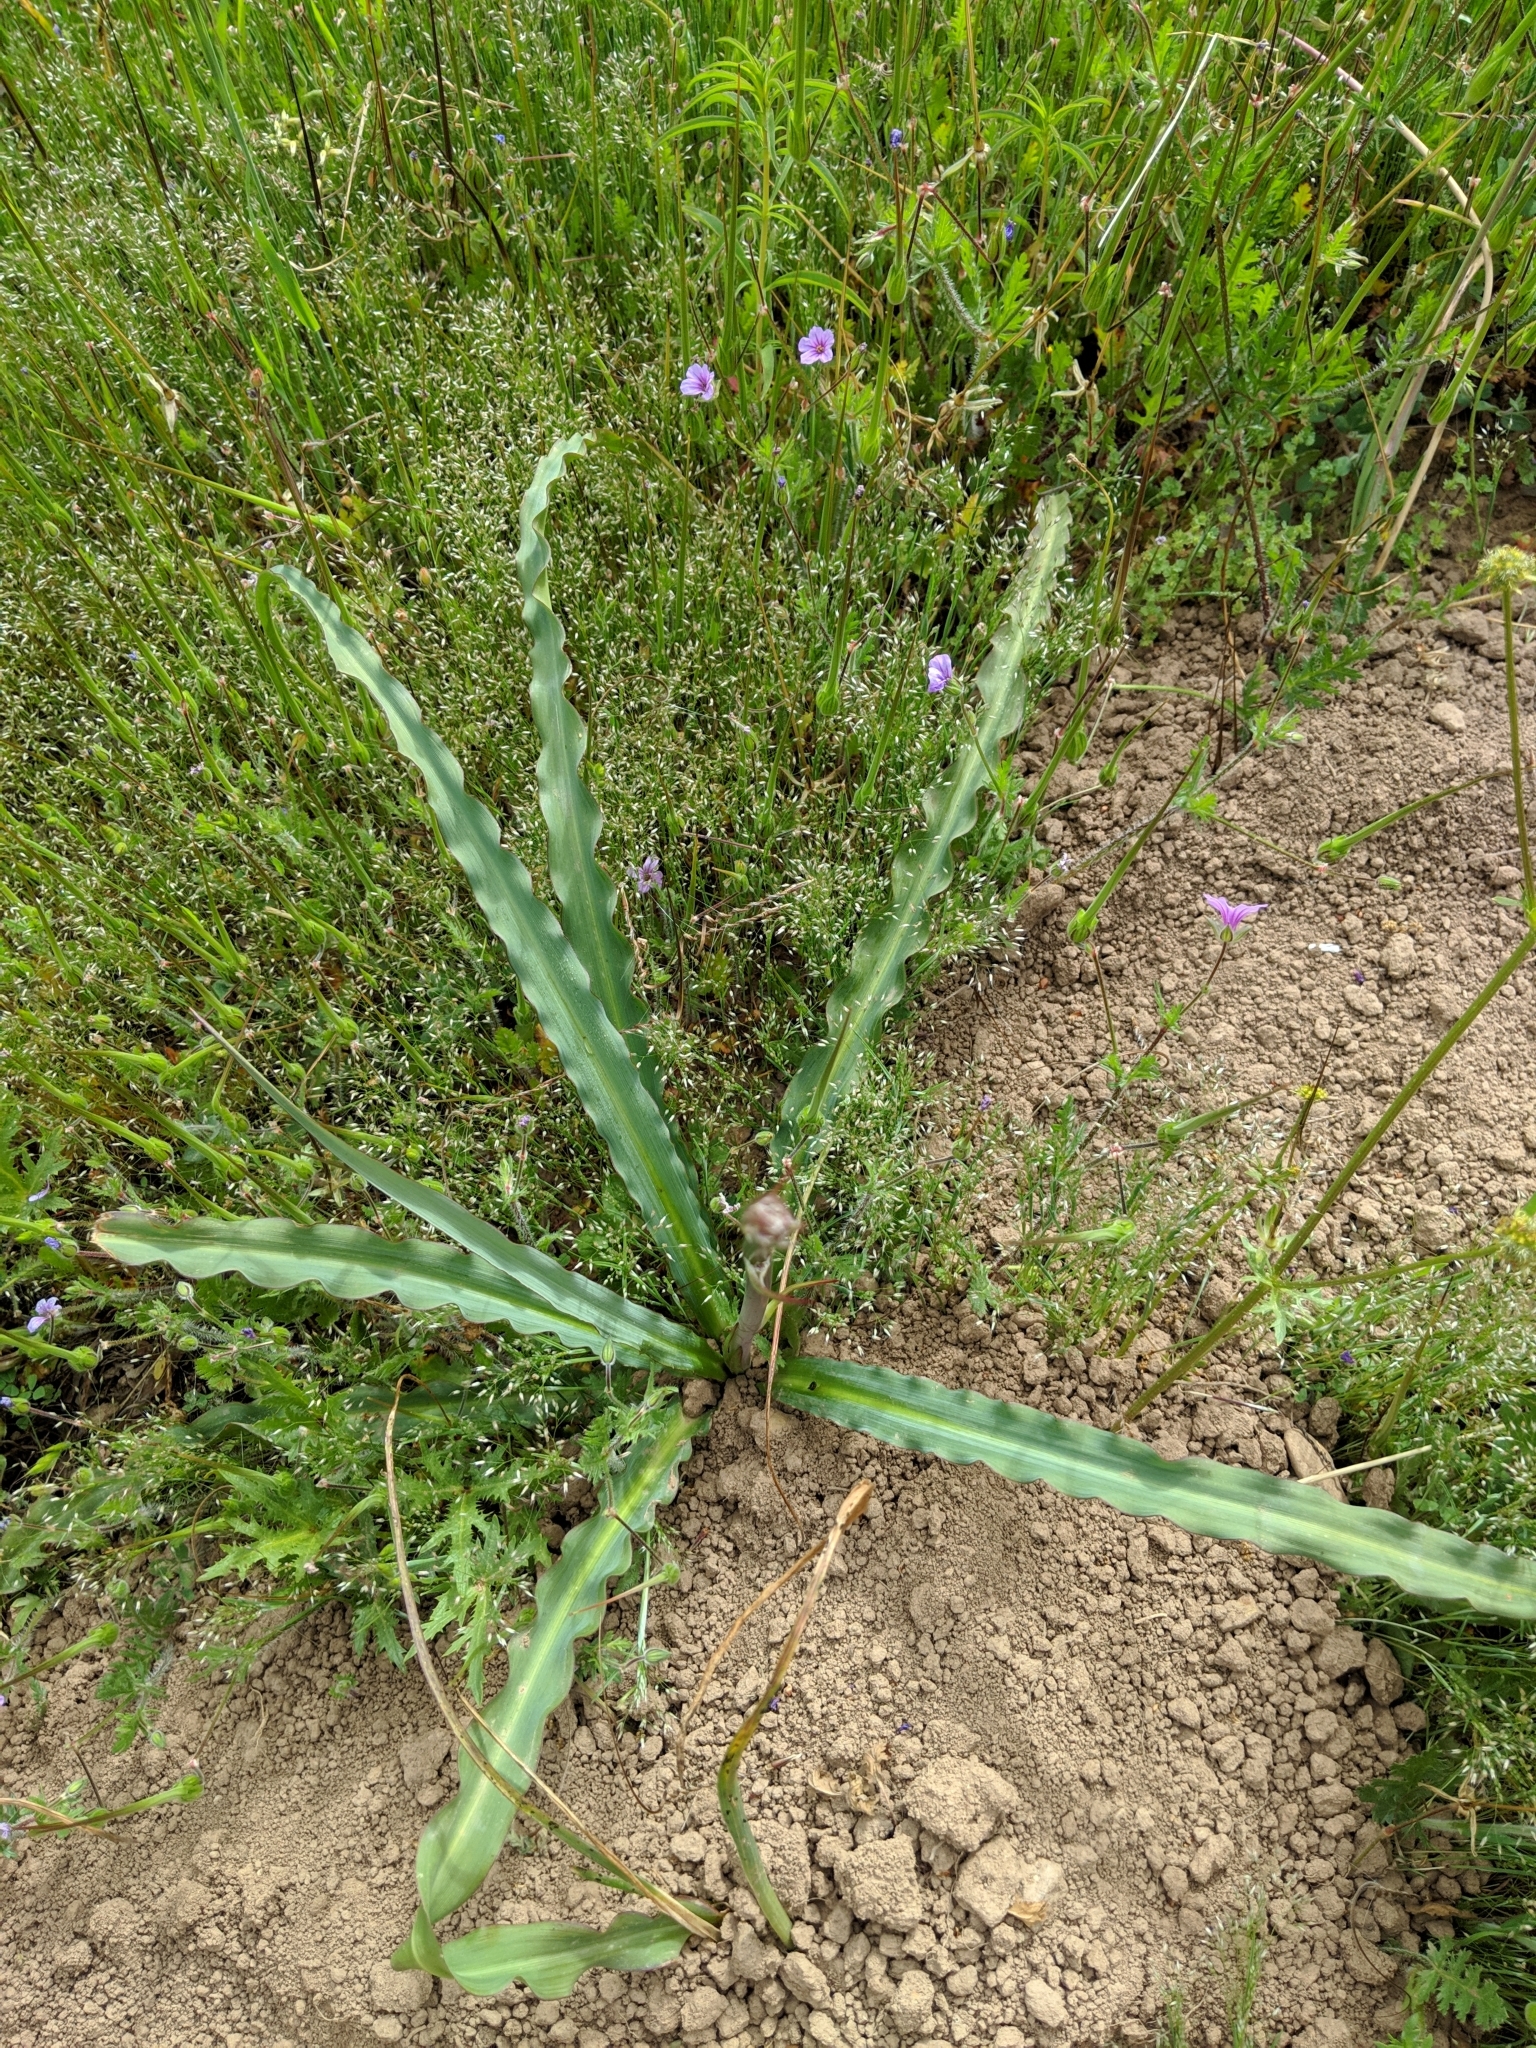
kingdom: Plantae
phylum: Tracheophyta
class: Liliopsida
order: Asparagales
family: Asparagaceae
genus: Chlorogalum
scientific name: Chlorogalum pomeridianum
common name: Amole
